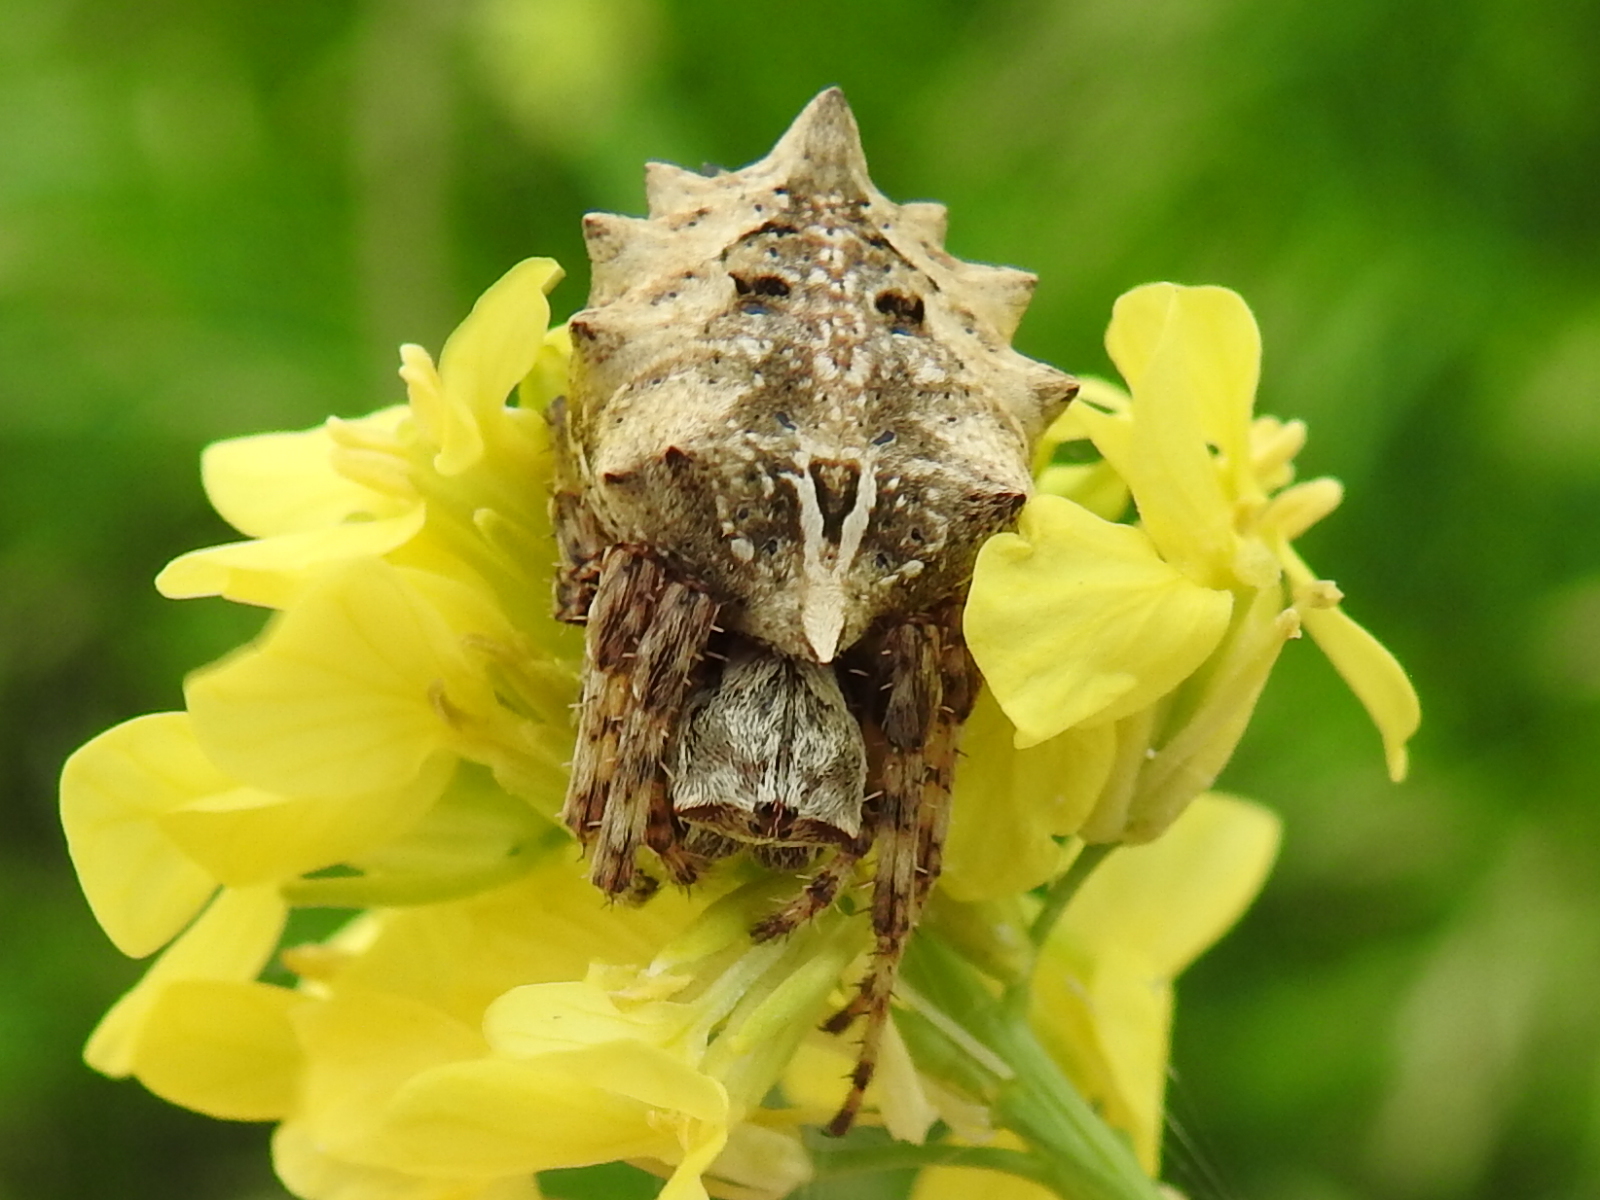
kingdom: Animalia
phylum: Arthropoda
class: Arachnida
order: Araneae
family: Araneidae
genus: Acanthepeira
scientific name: Acanthepeira stellata
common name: Starbellied orbweaver
